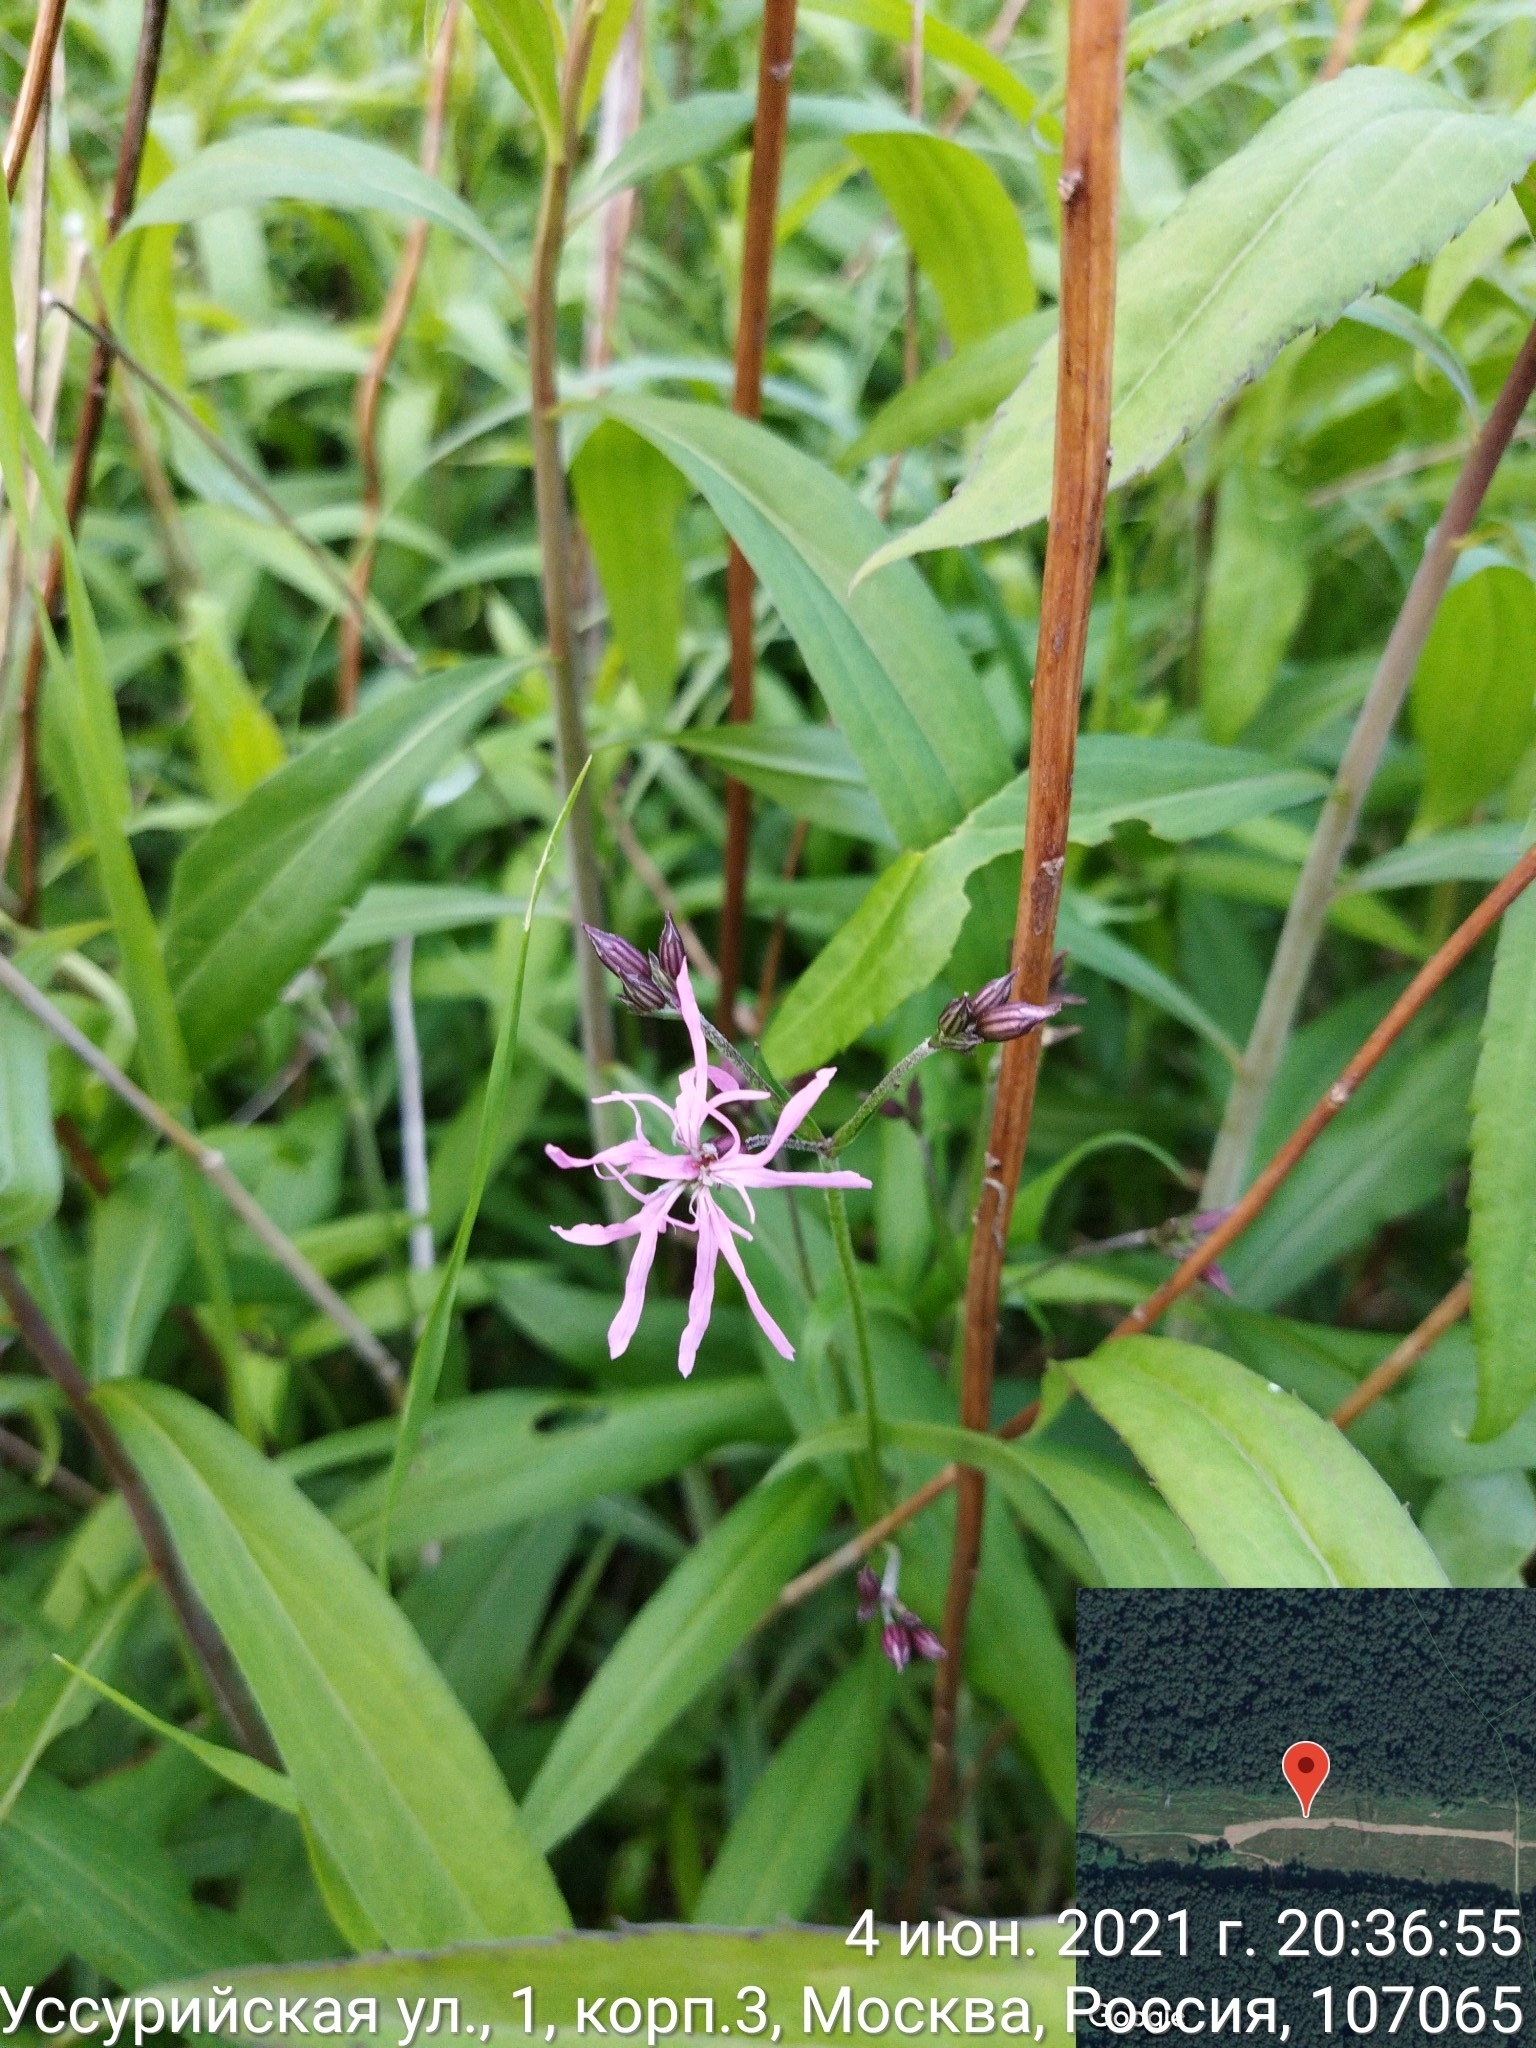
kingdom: Plantae
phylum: Tracheophyta
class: Magnoliopsida
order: Caryophyllales
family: Caryophyllaceae
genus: Silene
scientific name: Silene flos-cuculi
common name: Ragged-robin
